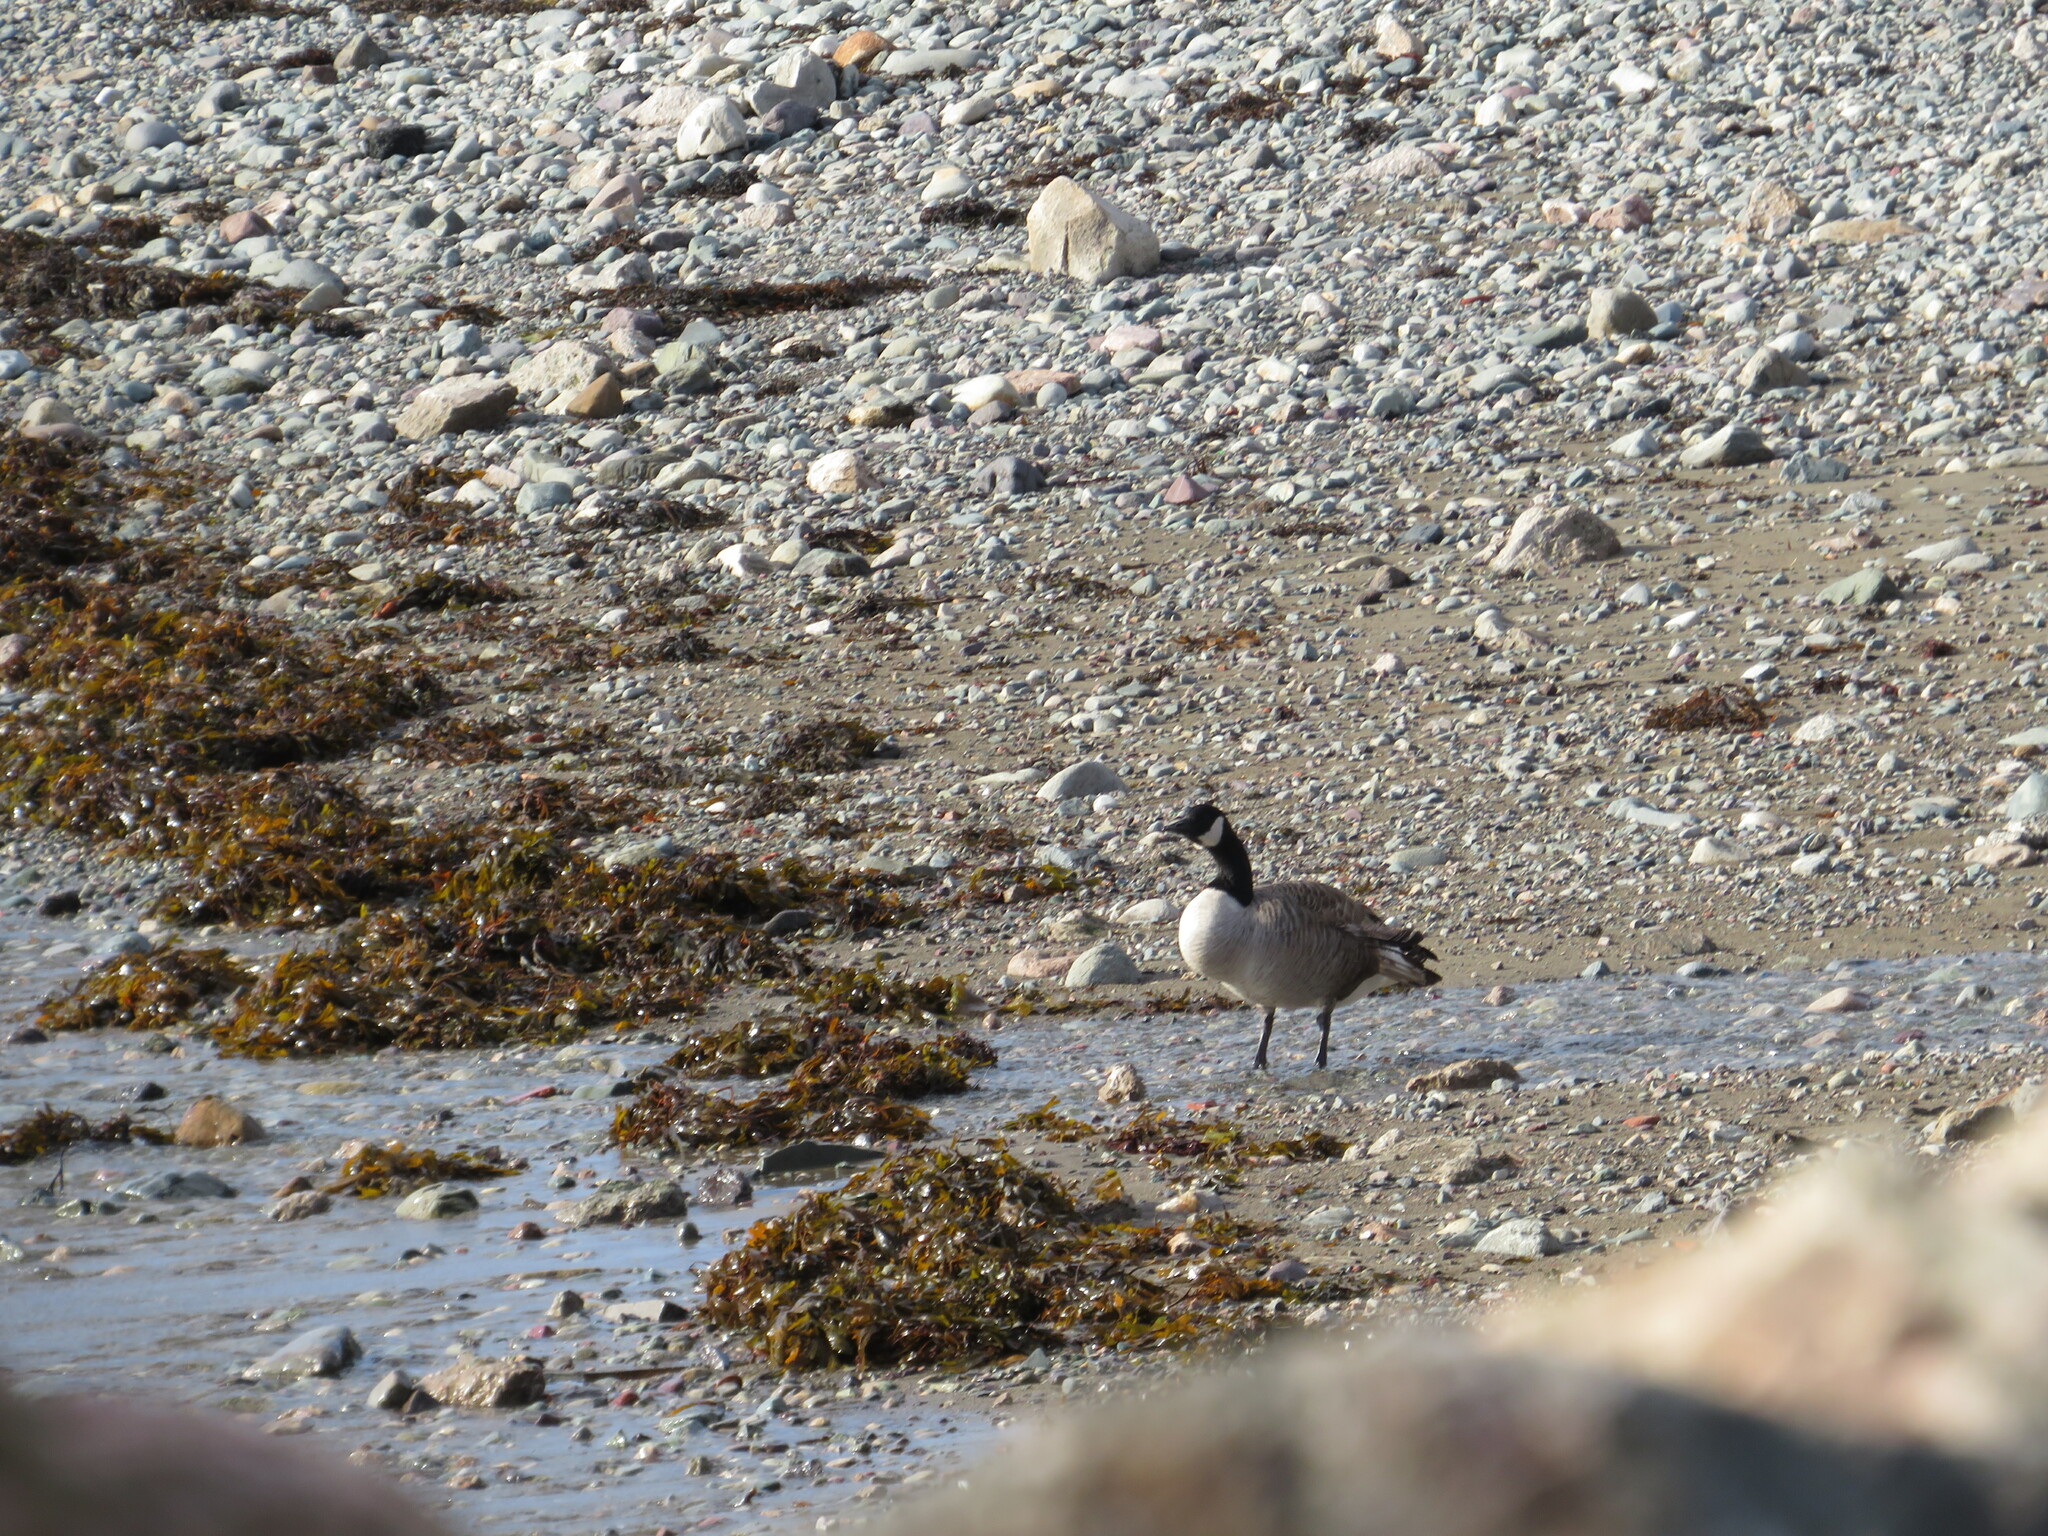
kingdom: Animalia
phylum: Chordata
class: Aves
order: Anseriformes
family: Anatidae
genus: Branta
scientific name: Branta canadensis
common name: Canada goose
